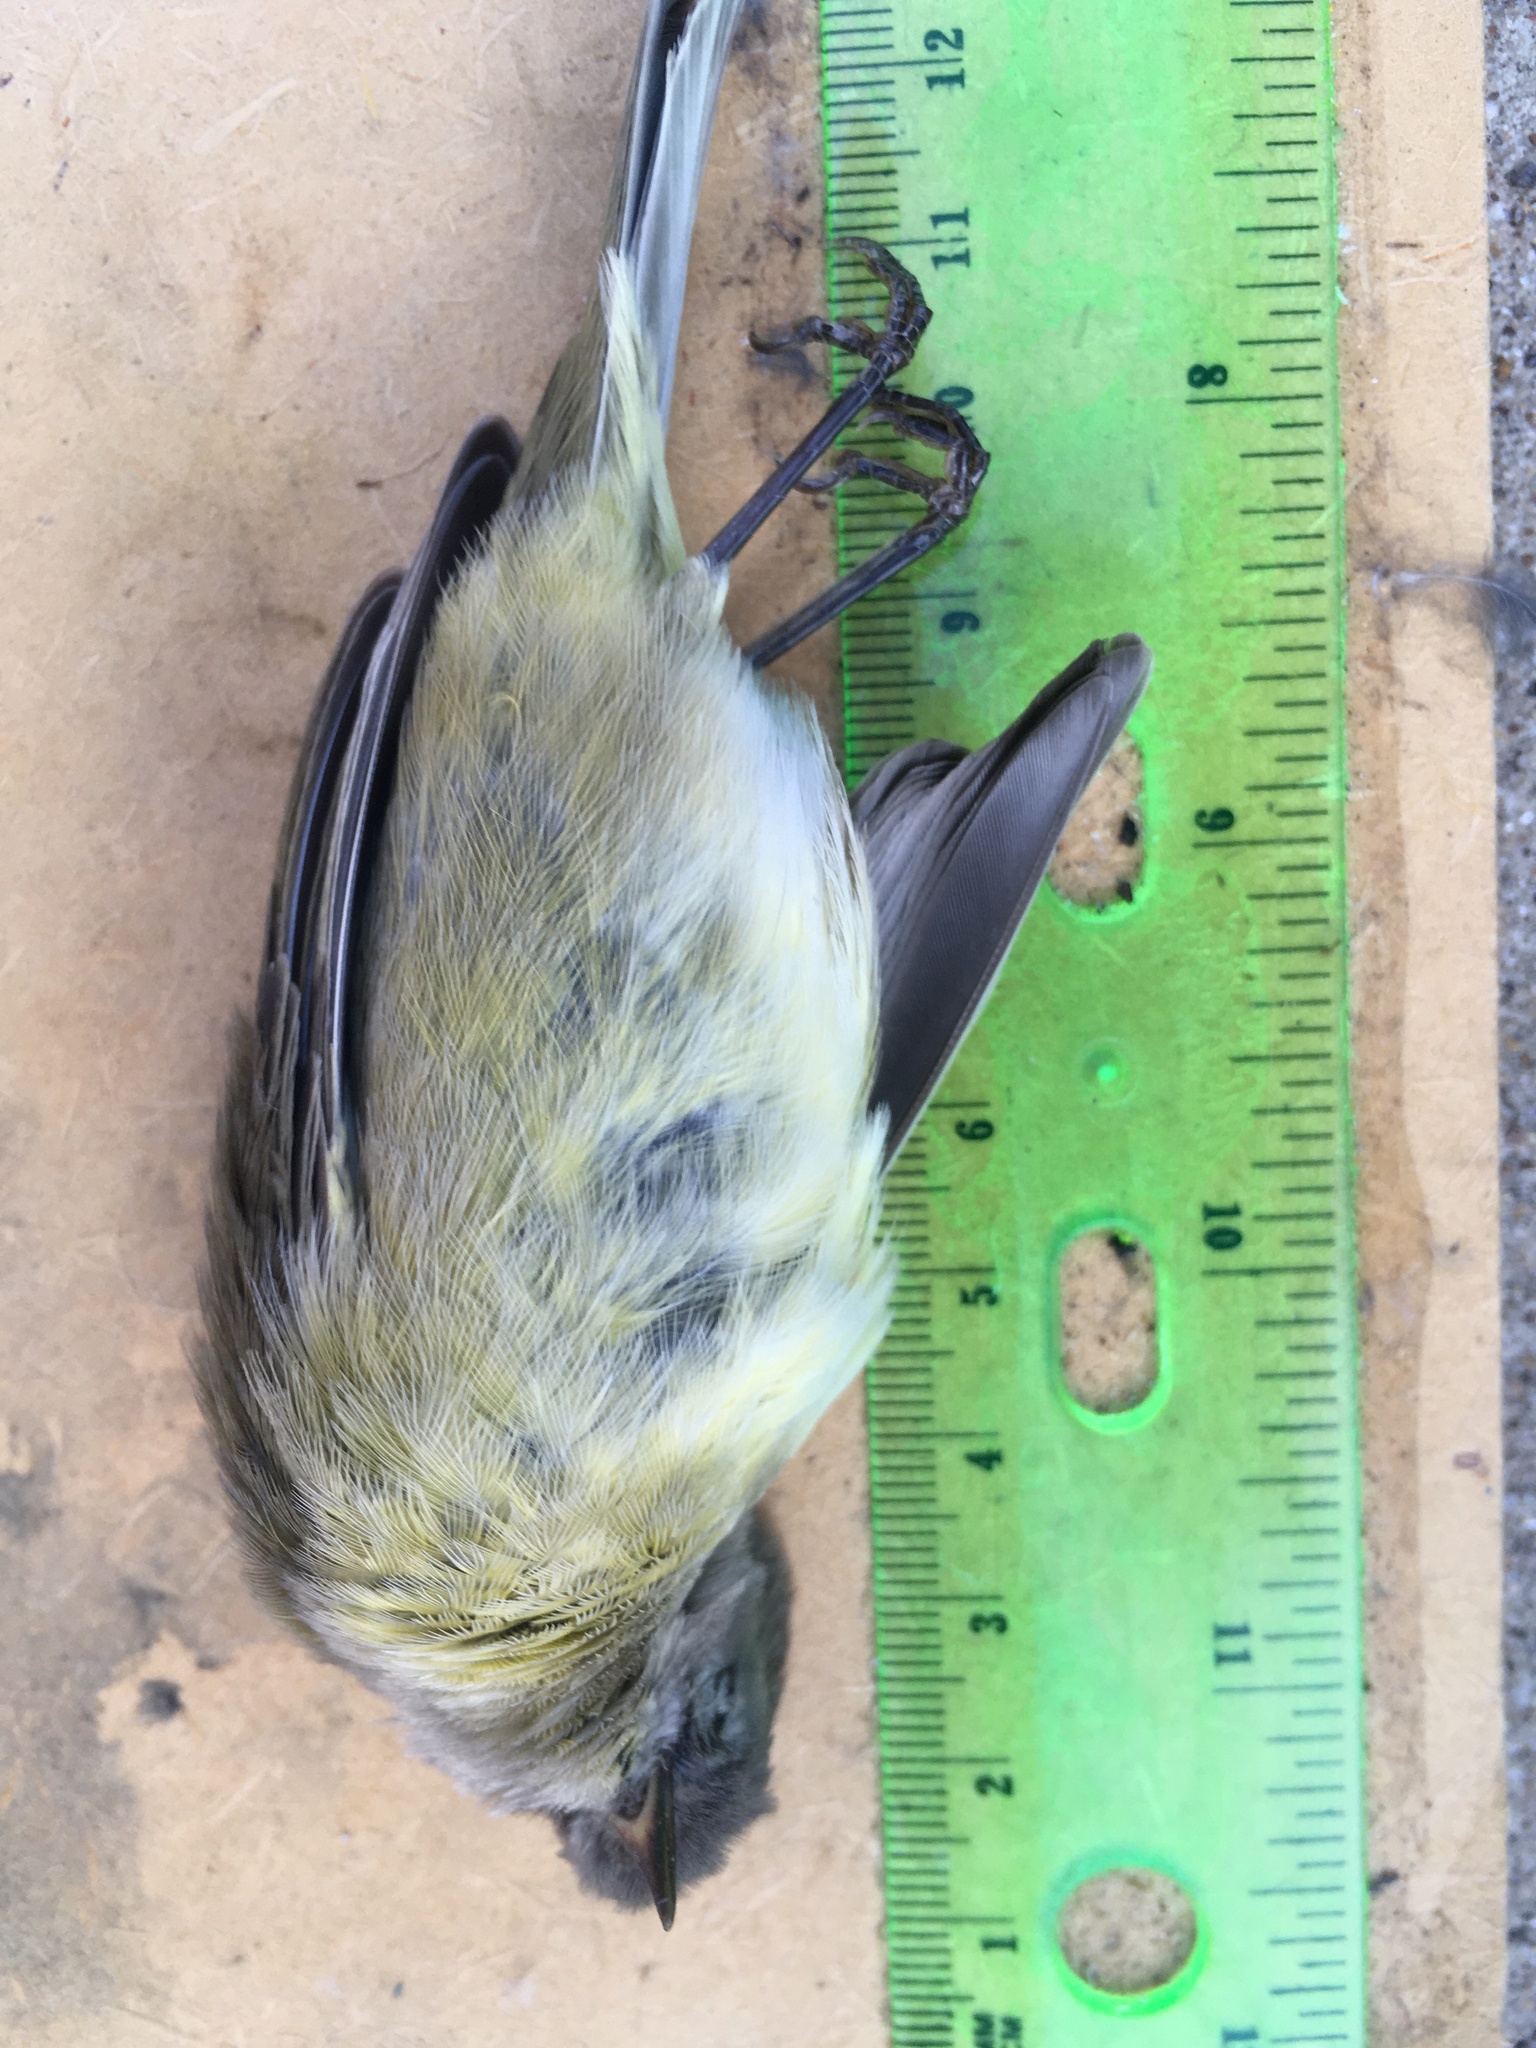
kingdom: Animalia
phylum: Chordata
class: Aves
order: Passeriformes
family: Parulidae
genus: Leiothlypis
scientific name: Leiothlypis celata
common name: Orange-crowned warbler
